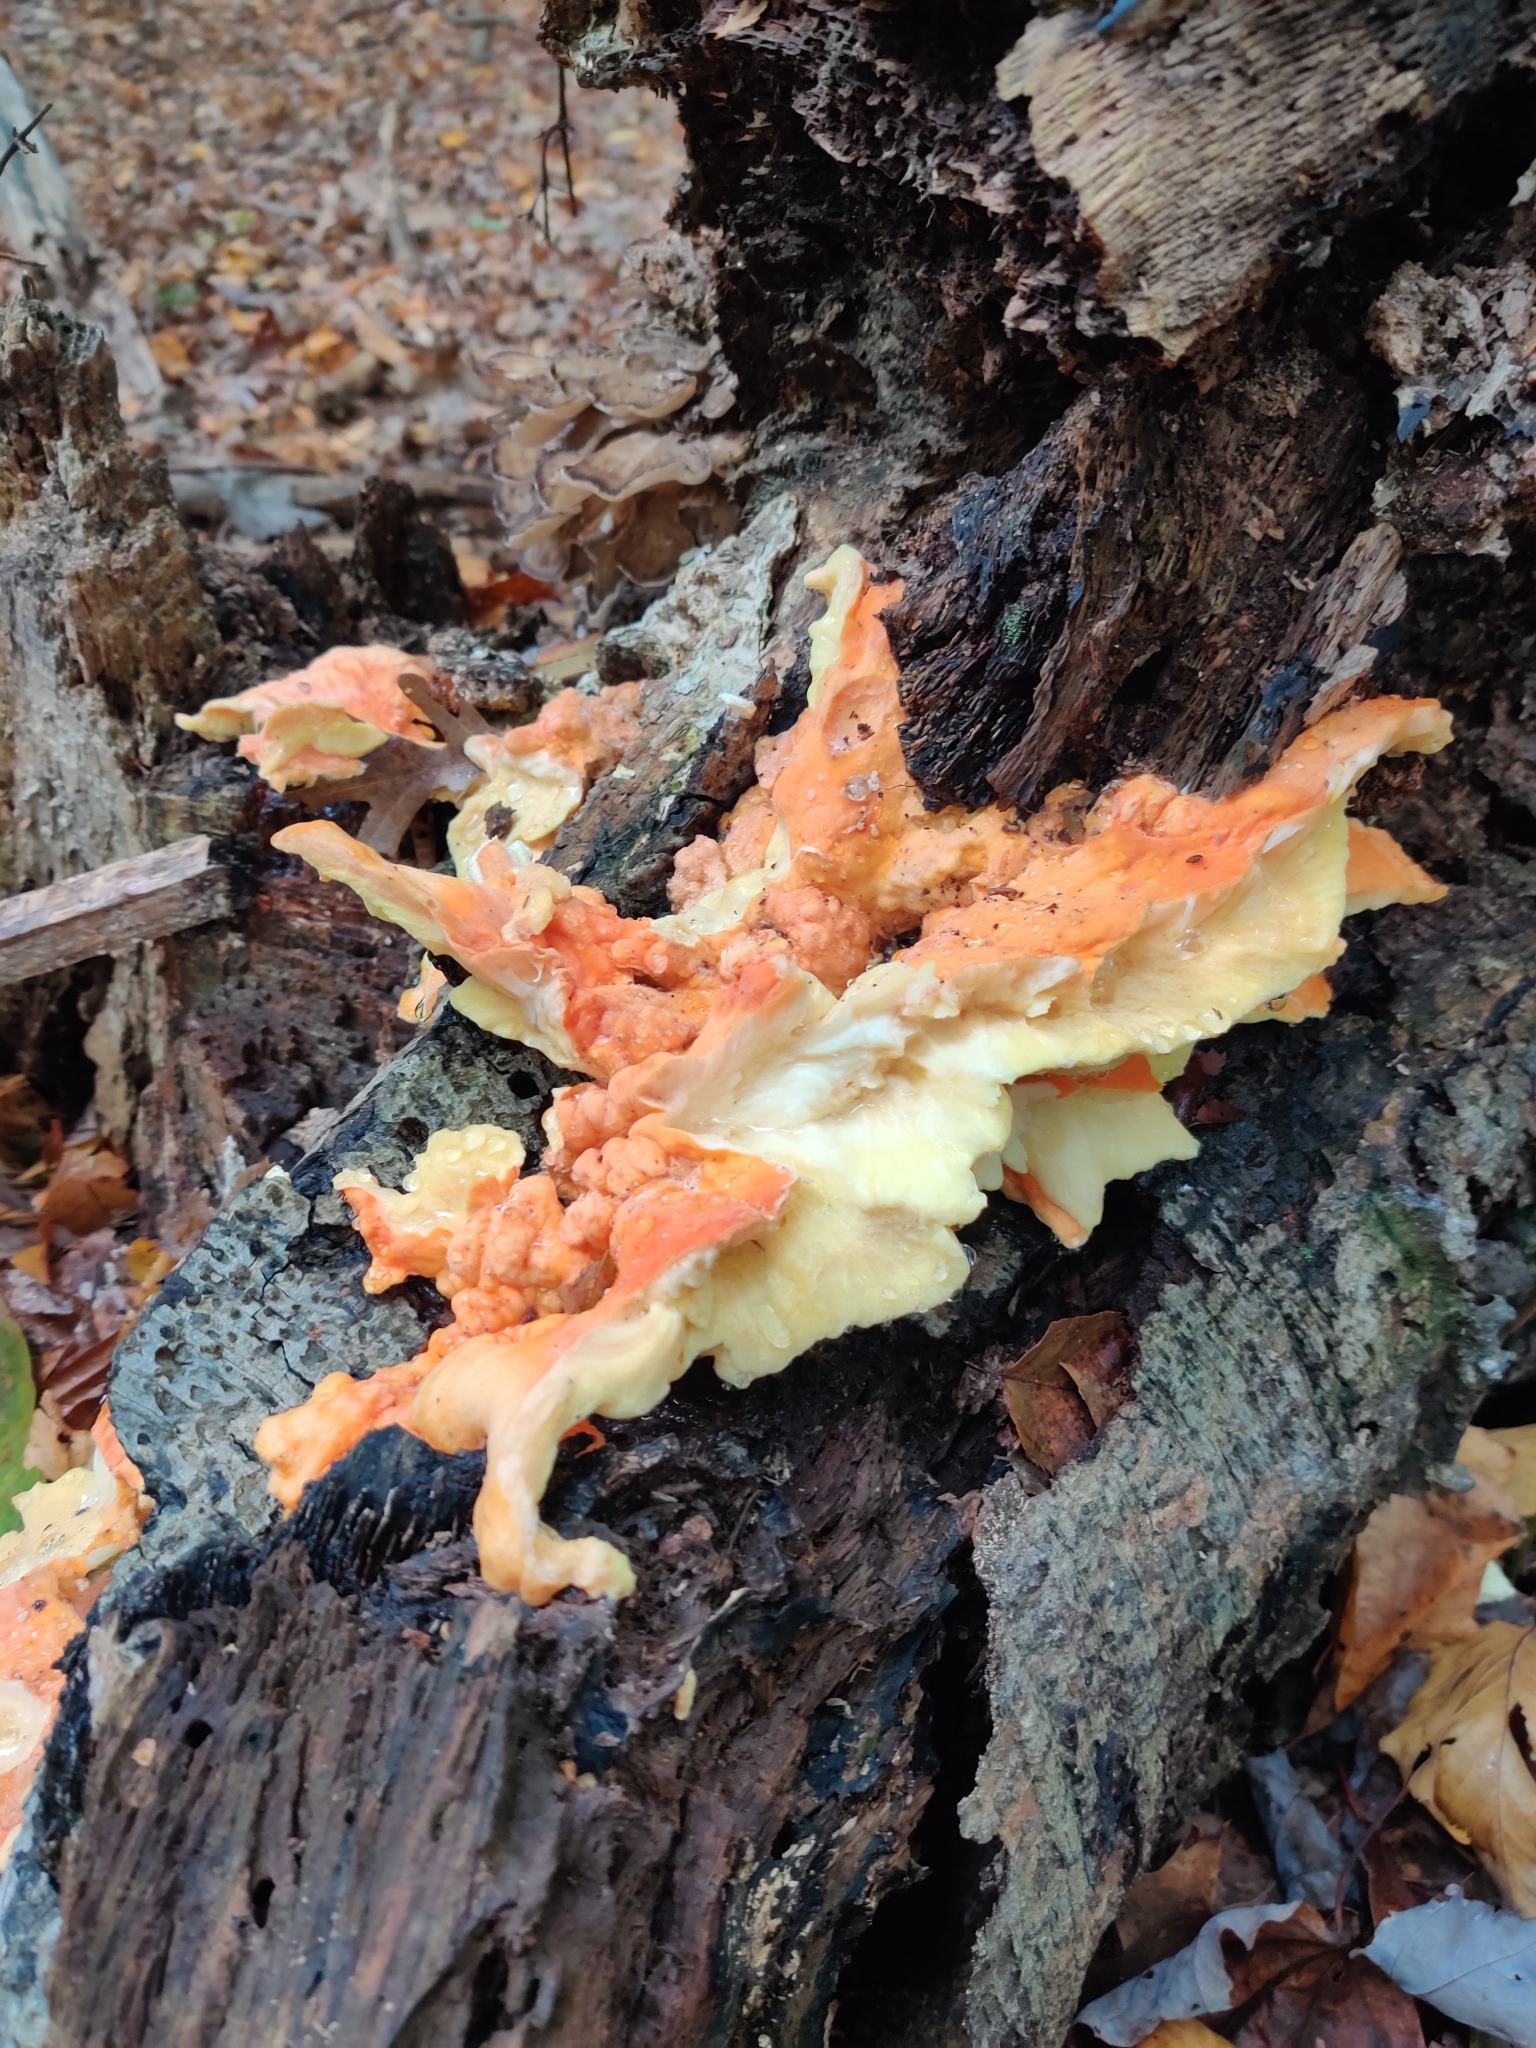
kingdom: Fungi
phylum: Basidiomycota
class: Agaricomycetes
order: Polyporales
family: Laetiporaceae
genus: Laetiporus
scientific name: Laetiporus sulphureus
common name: Chicken of the woods
